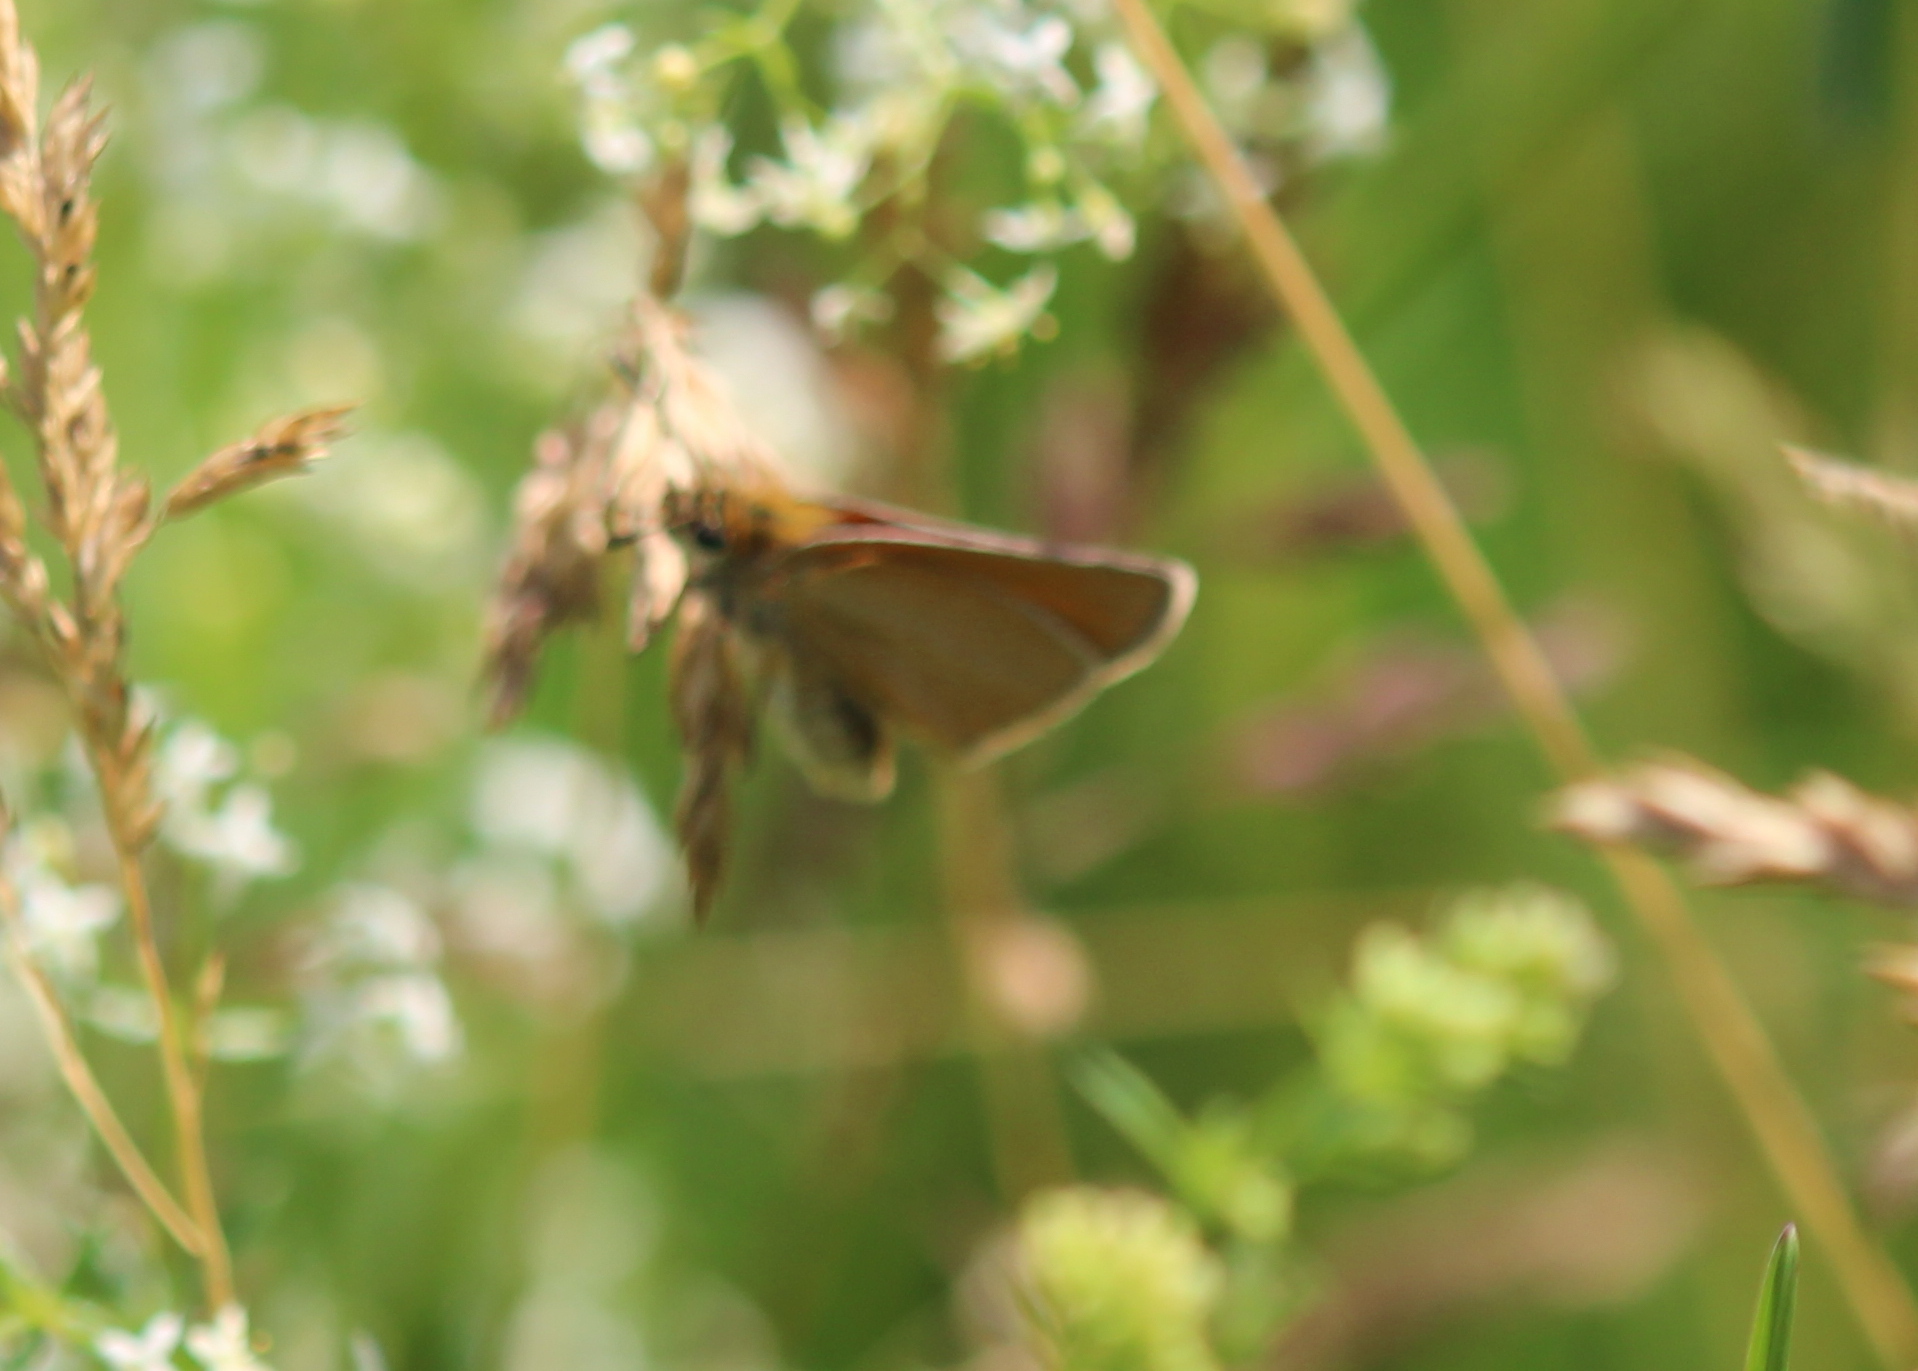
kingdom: Animalia
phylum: Arthropoda
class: Insecta
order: Lepidoptera
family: Hesperiidae
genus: Thymelicus
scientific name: Thymelicus lineola
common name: Essex skipper
